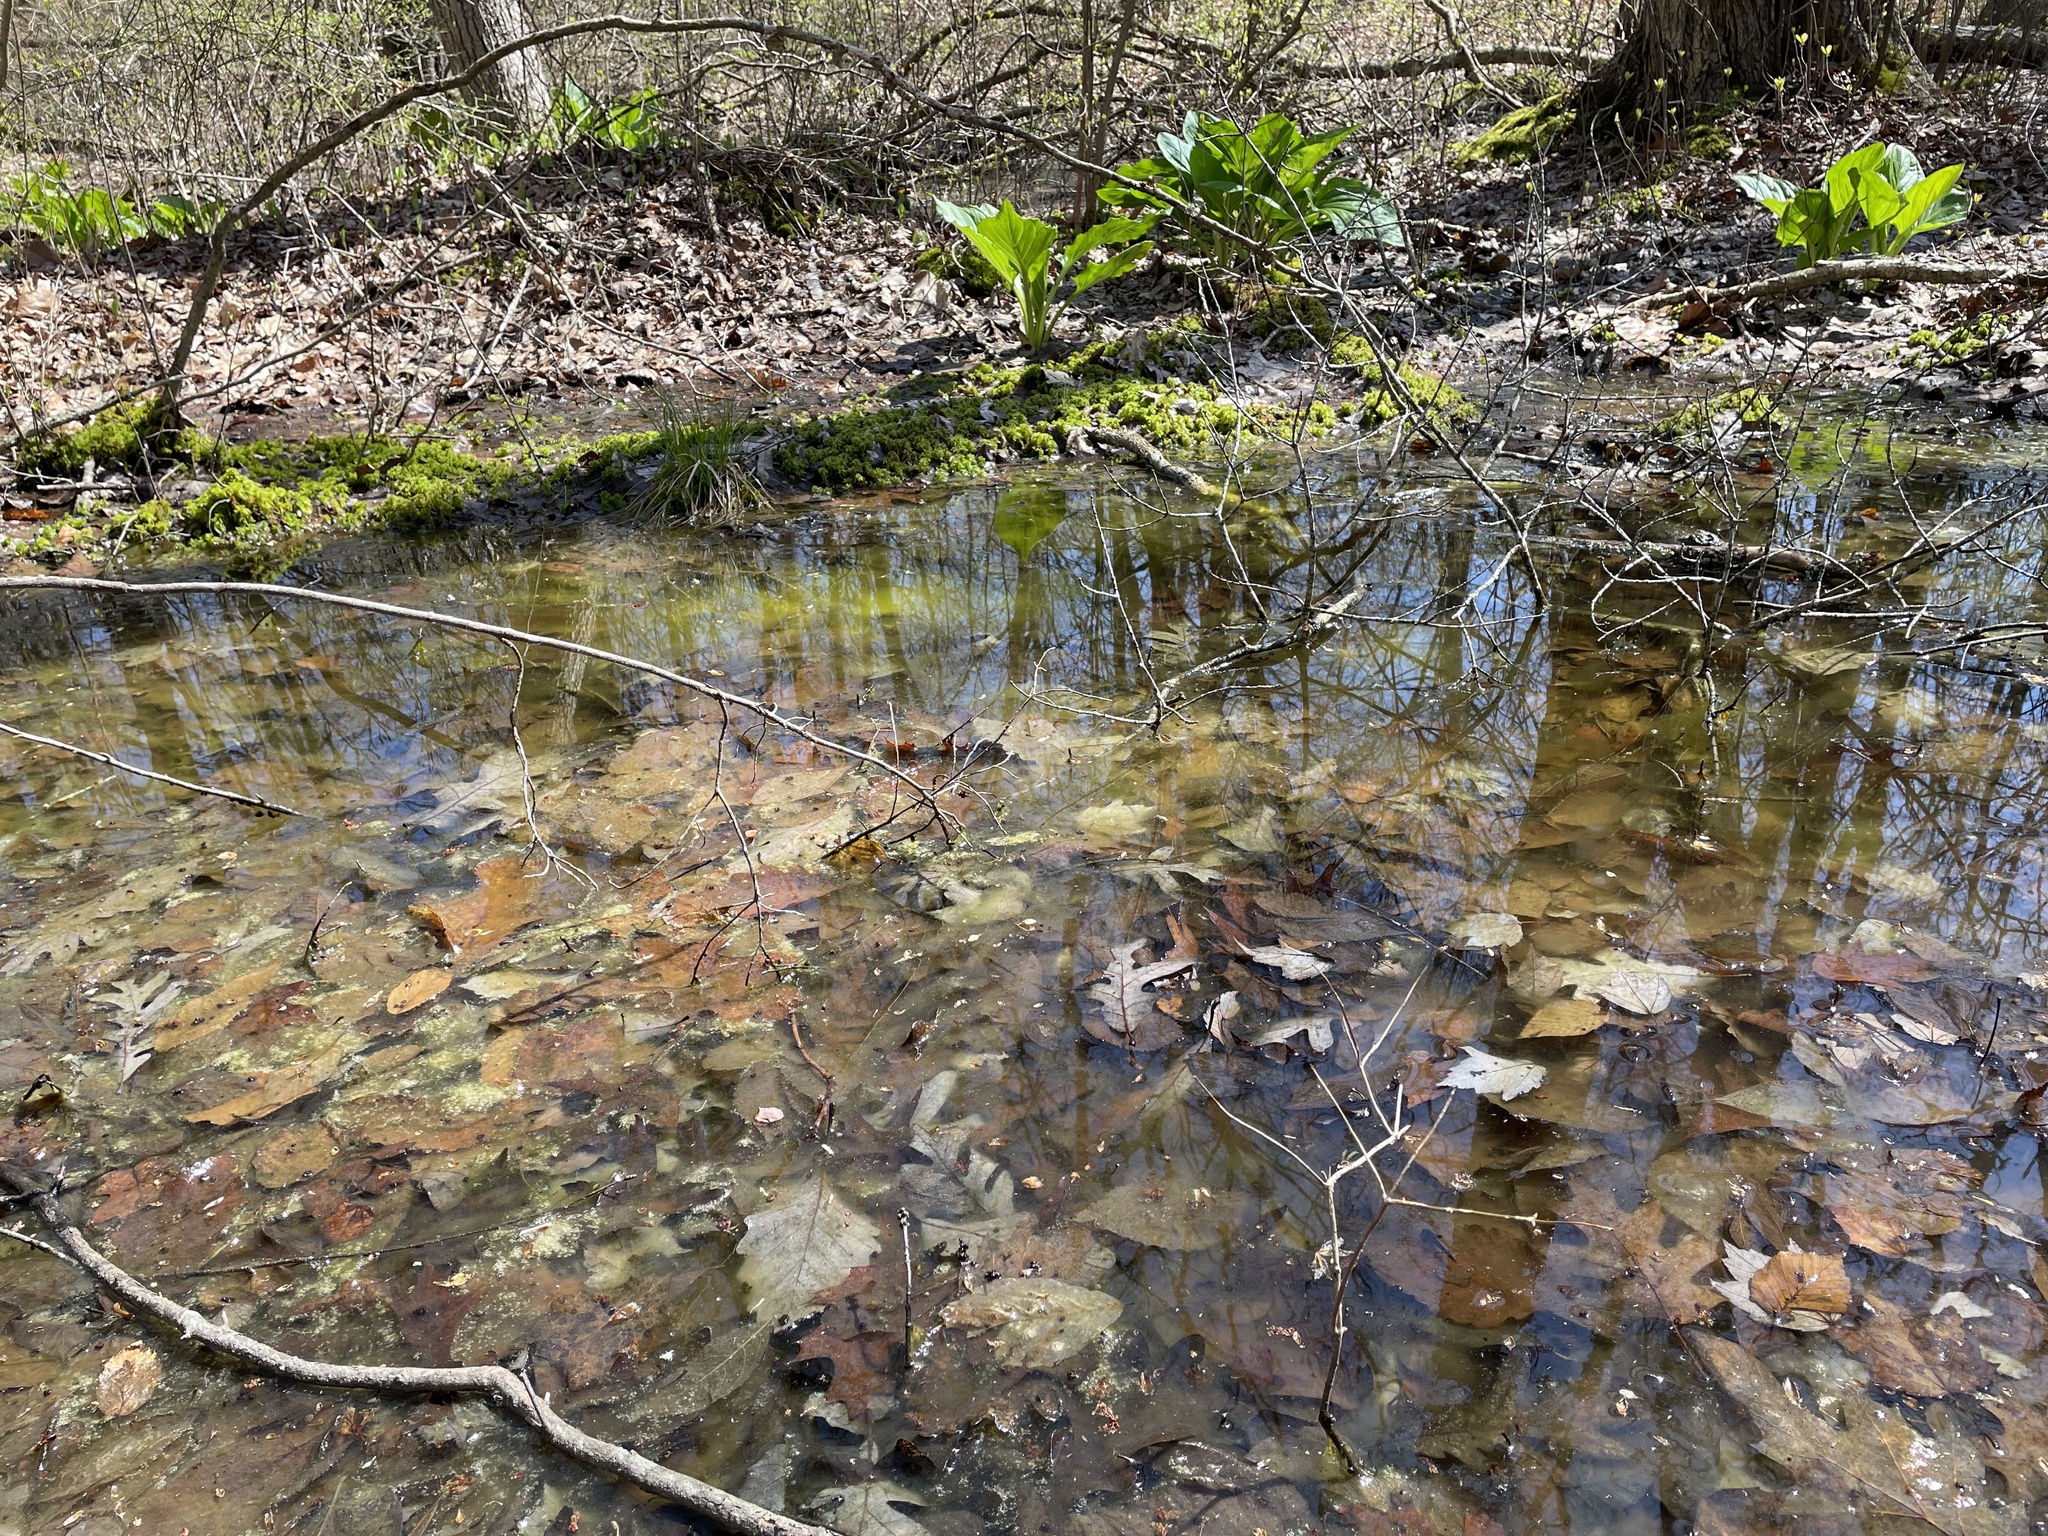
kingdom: Animalia
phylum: Chordata
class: Amphibia
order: Caudata
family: Ambystomatidae
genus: Ambystoma
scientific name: Ambystoma opacum
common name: Marbled salamander
